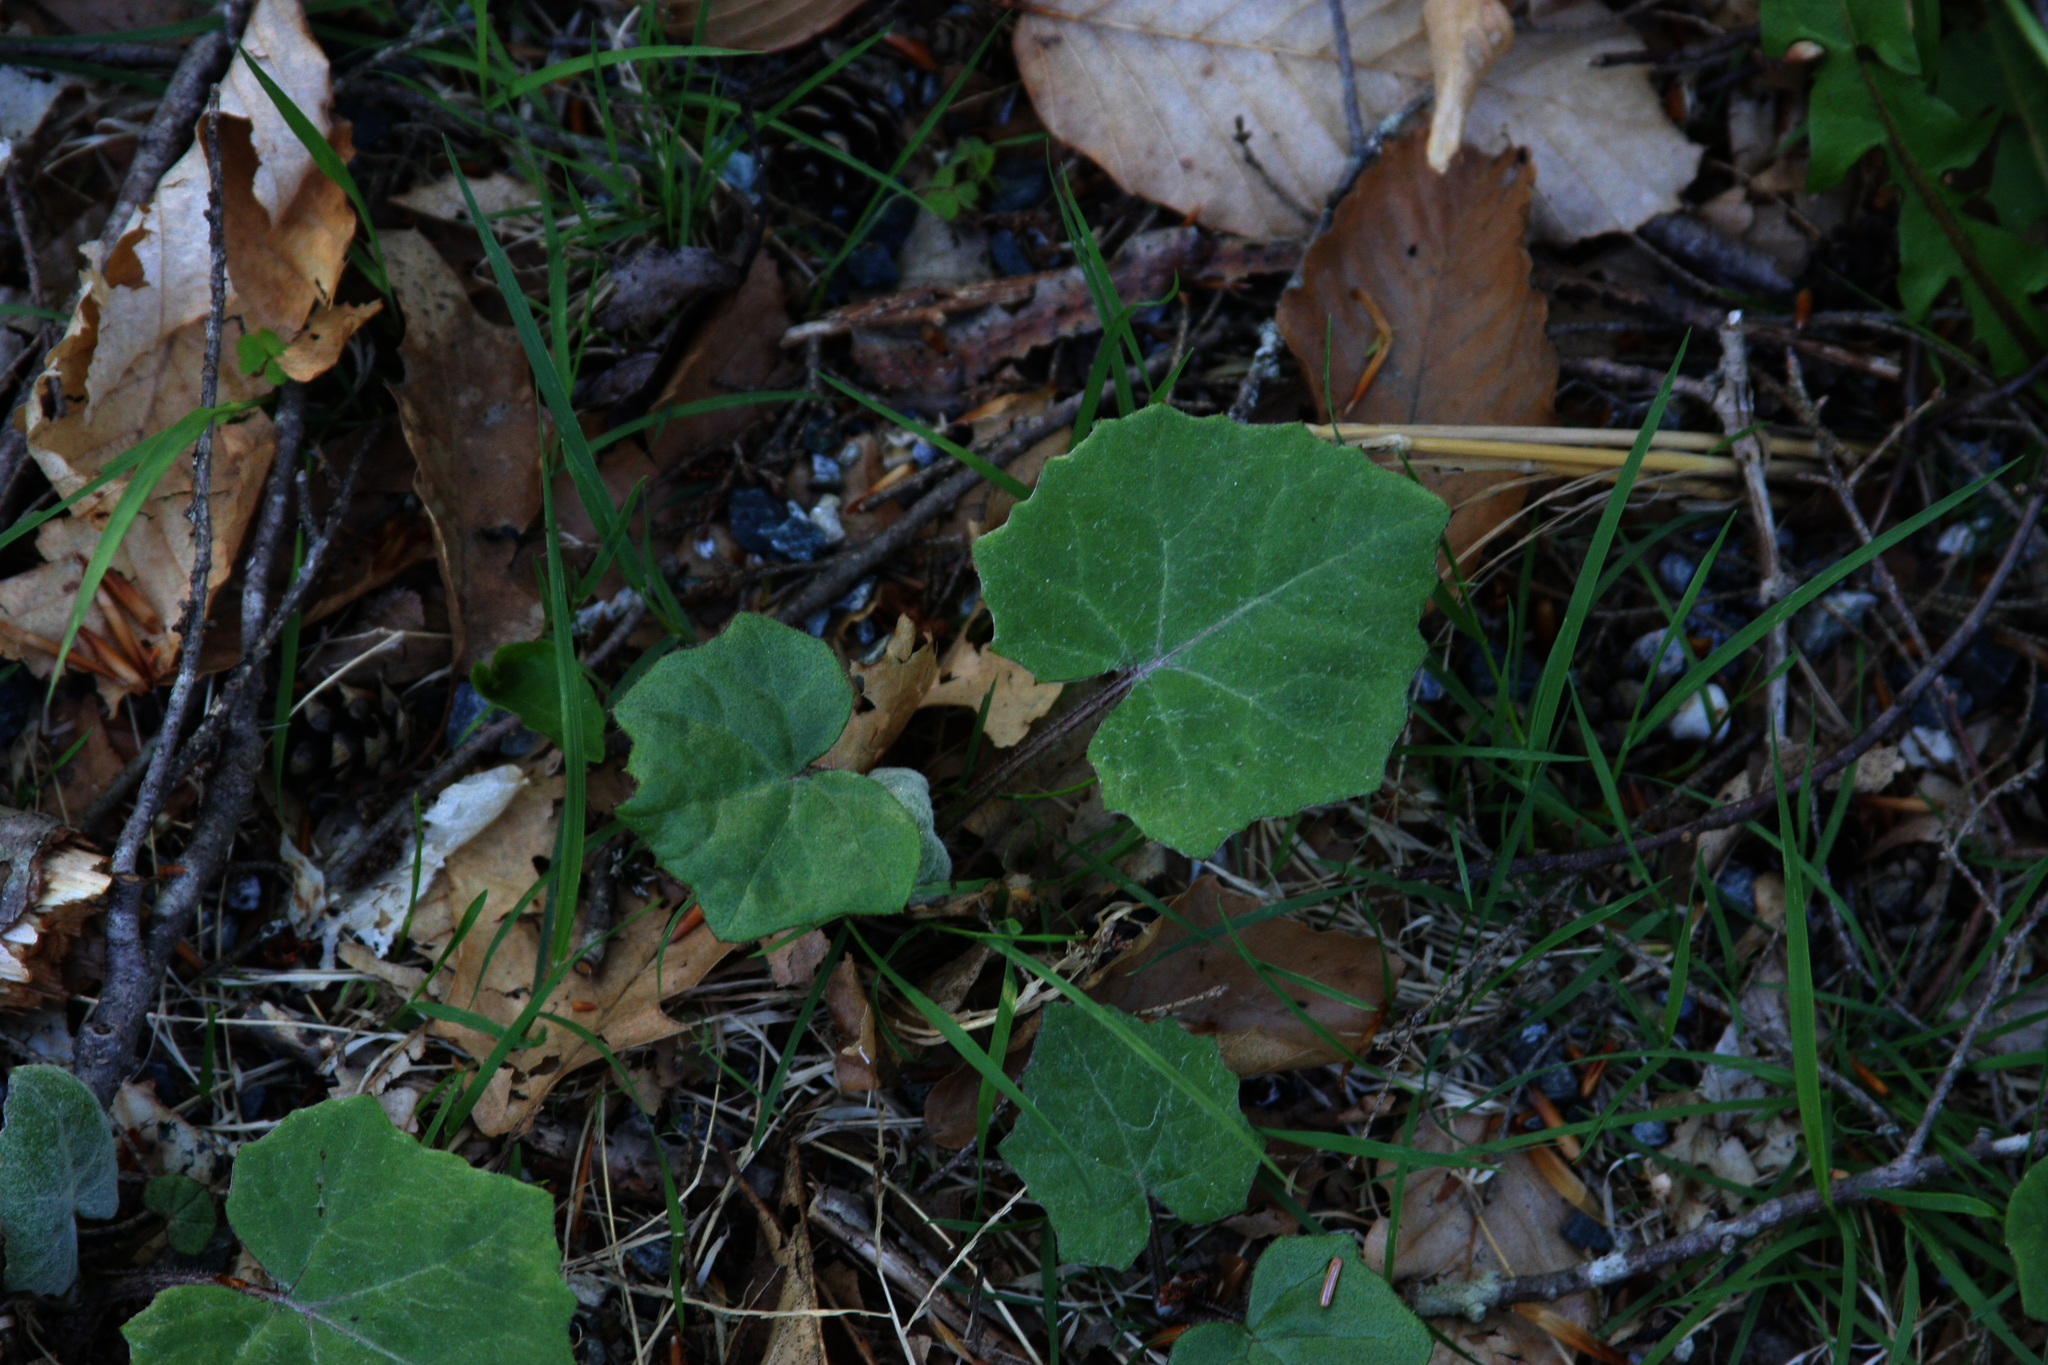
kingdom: Plantae
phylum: Tracheophyta
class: Magnoliopsida
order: Asterales
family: Asteraceae
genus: Tussilago
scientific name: Tussilago farfara
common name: Coltsfoot
